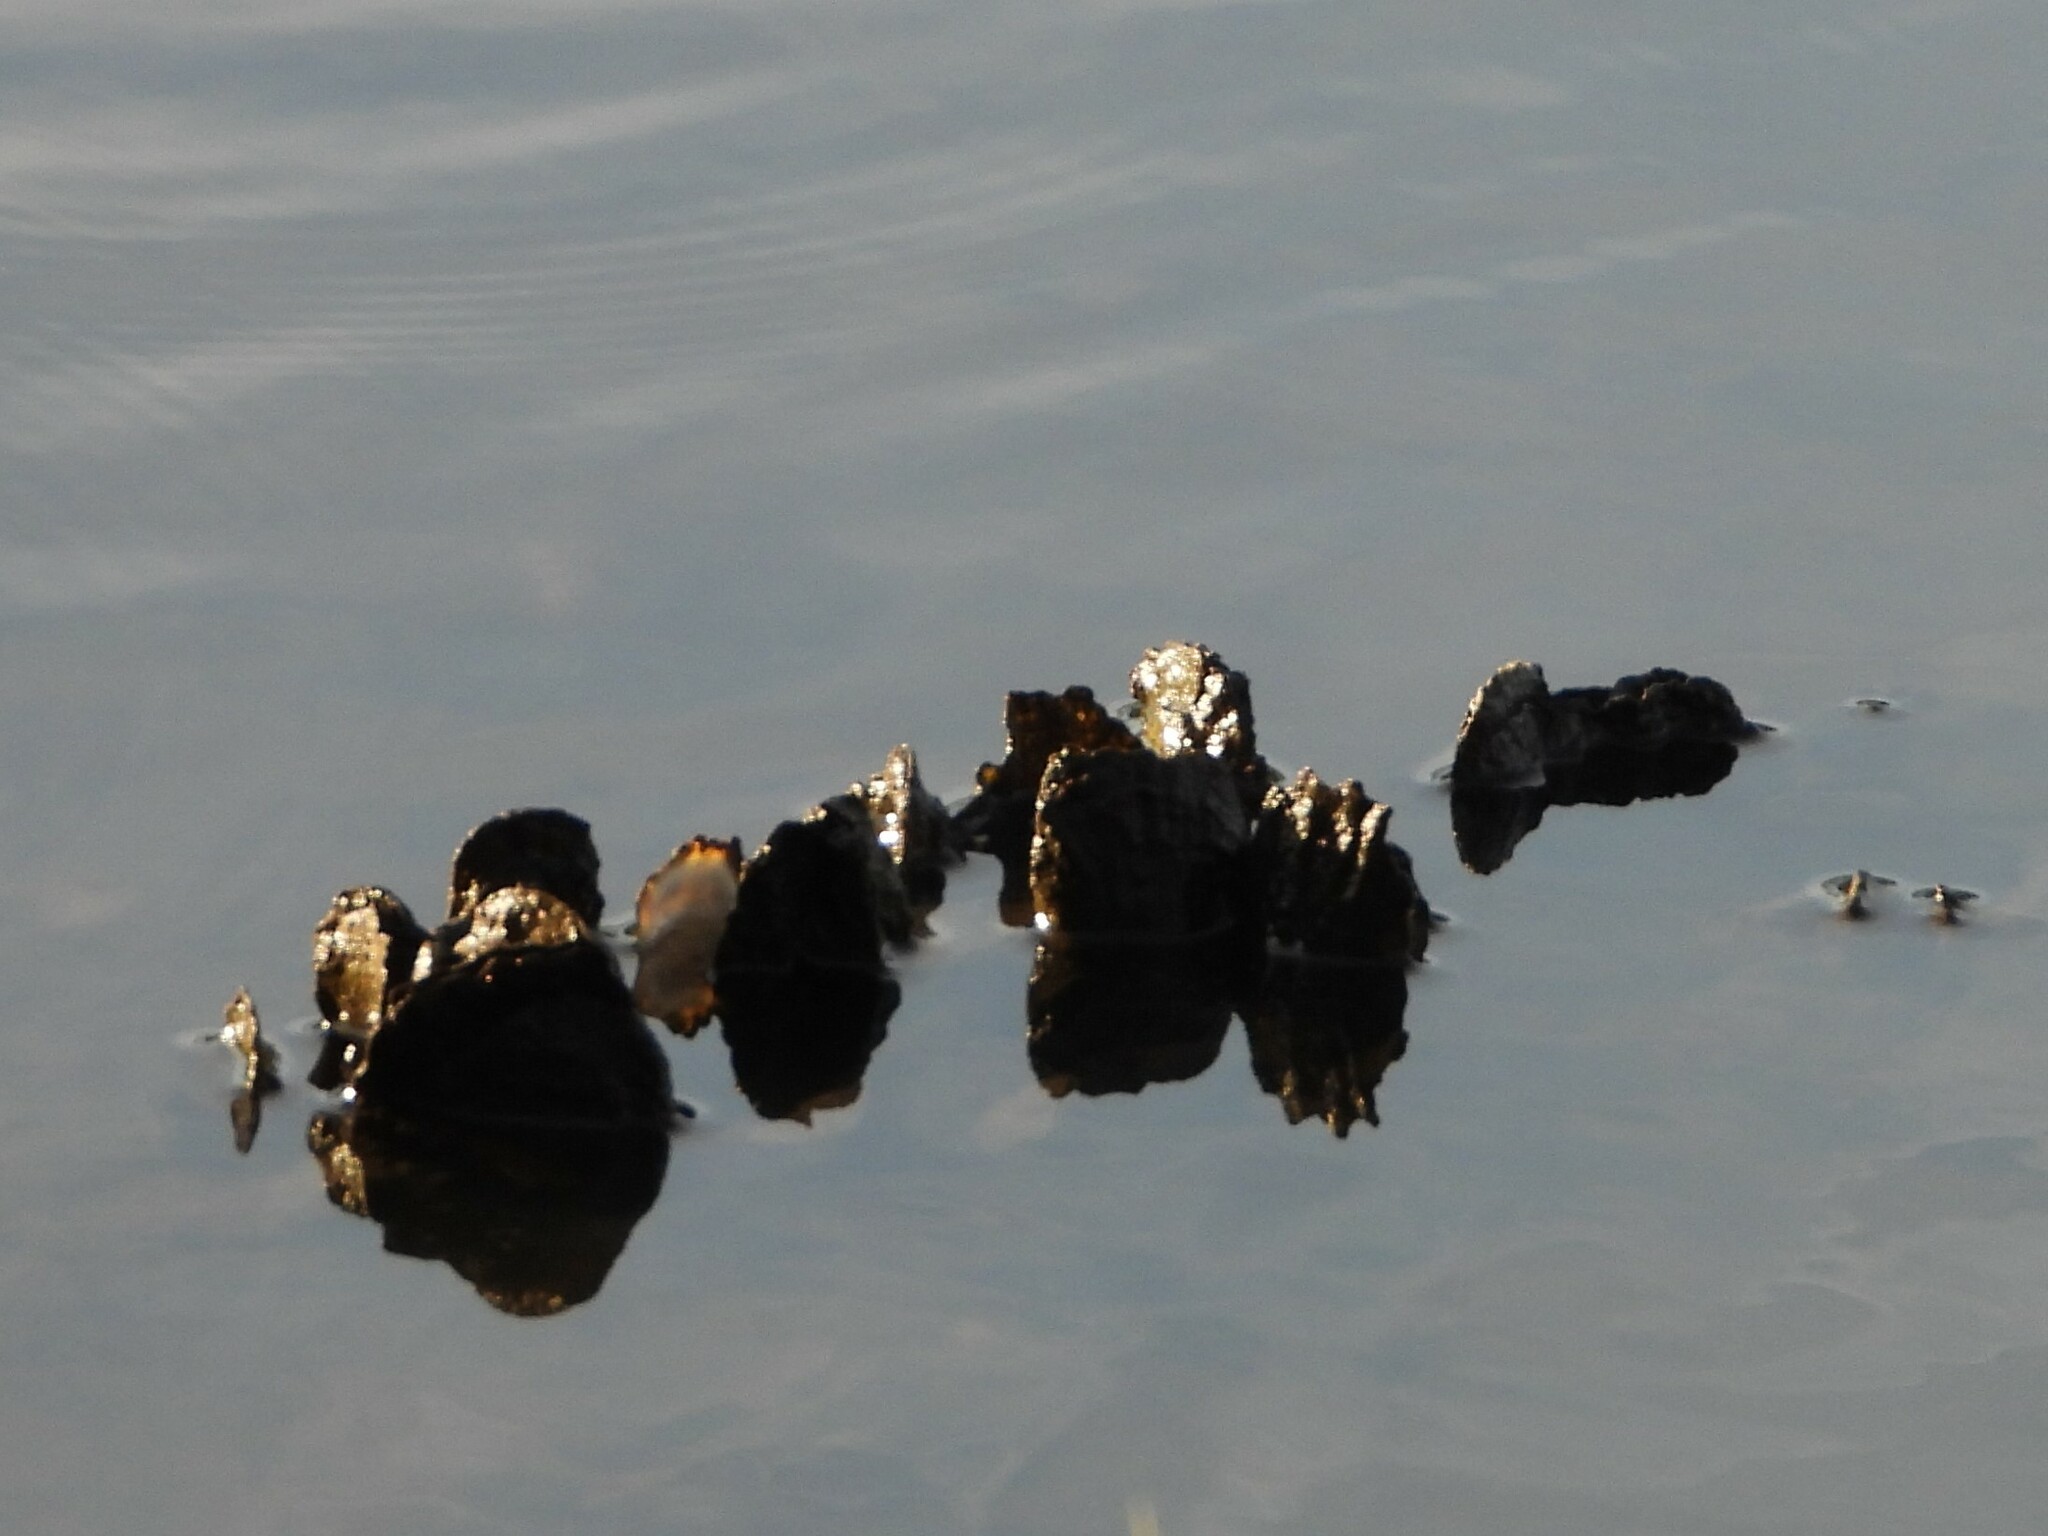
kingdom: Animalia
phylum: Mollusca
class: Bivalvia
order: Ostreida
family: Ostreidae
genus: Crassostrea
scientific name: Crassostrea virginica
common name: American oyster
